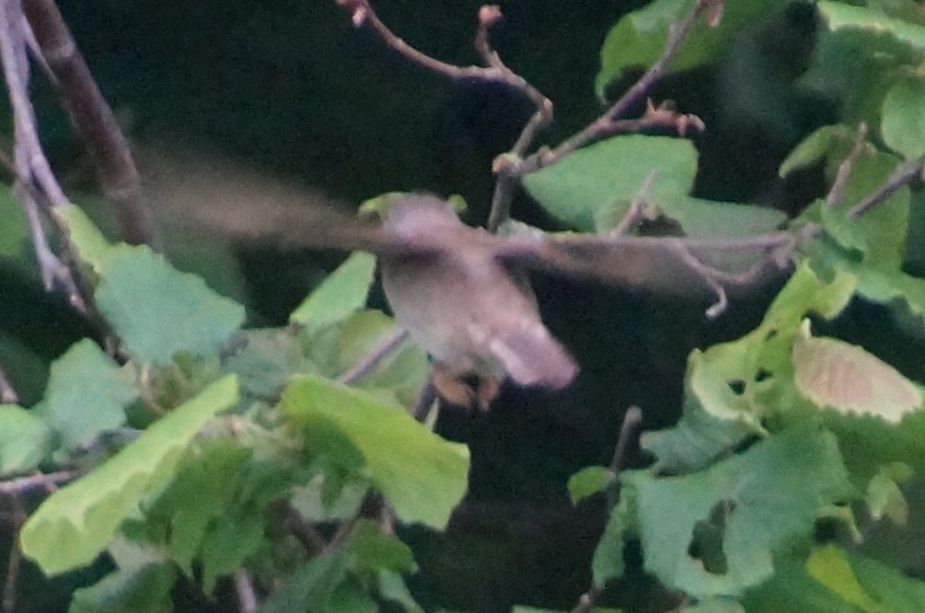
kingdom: Animalia
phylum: Chordata
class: Aves
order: Passeriformes
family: Sylviidae
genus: Sylvia
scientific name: Sylvia communis
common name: Common whitethroat
